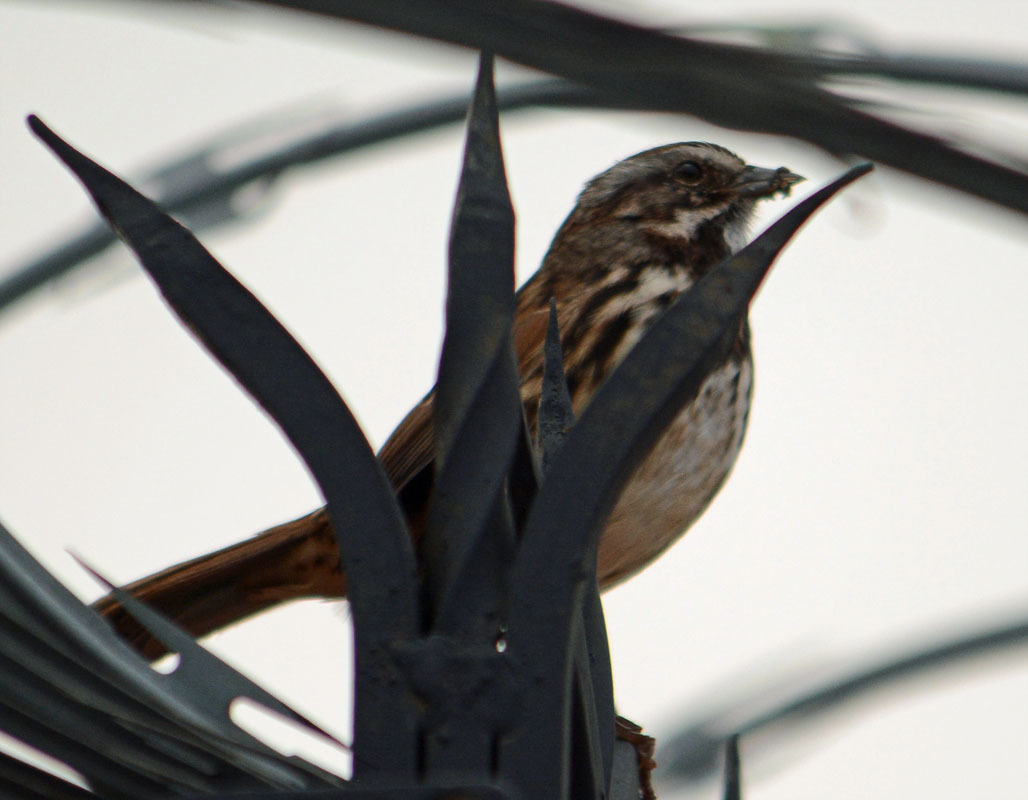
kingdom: Animalia
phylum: Chordata
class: Aves
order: Passeriformes
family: Passerellidae
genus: Melospiza
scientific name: Melospiza melodia
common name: Song sparrow
